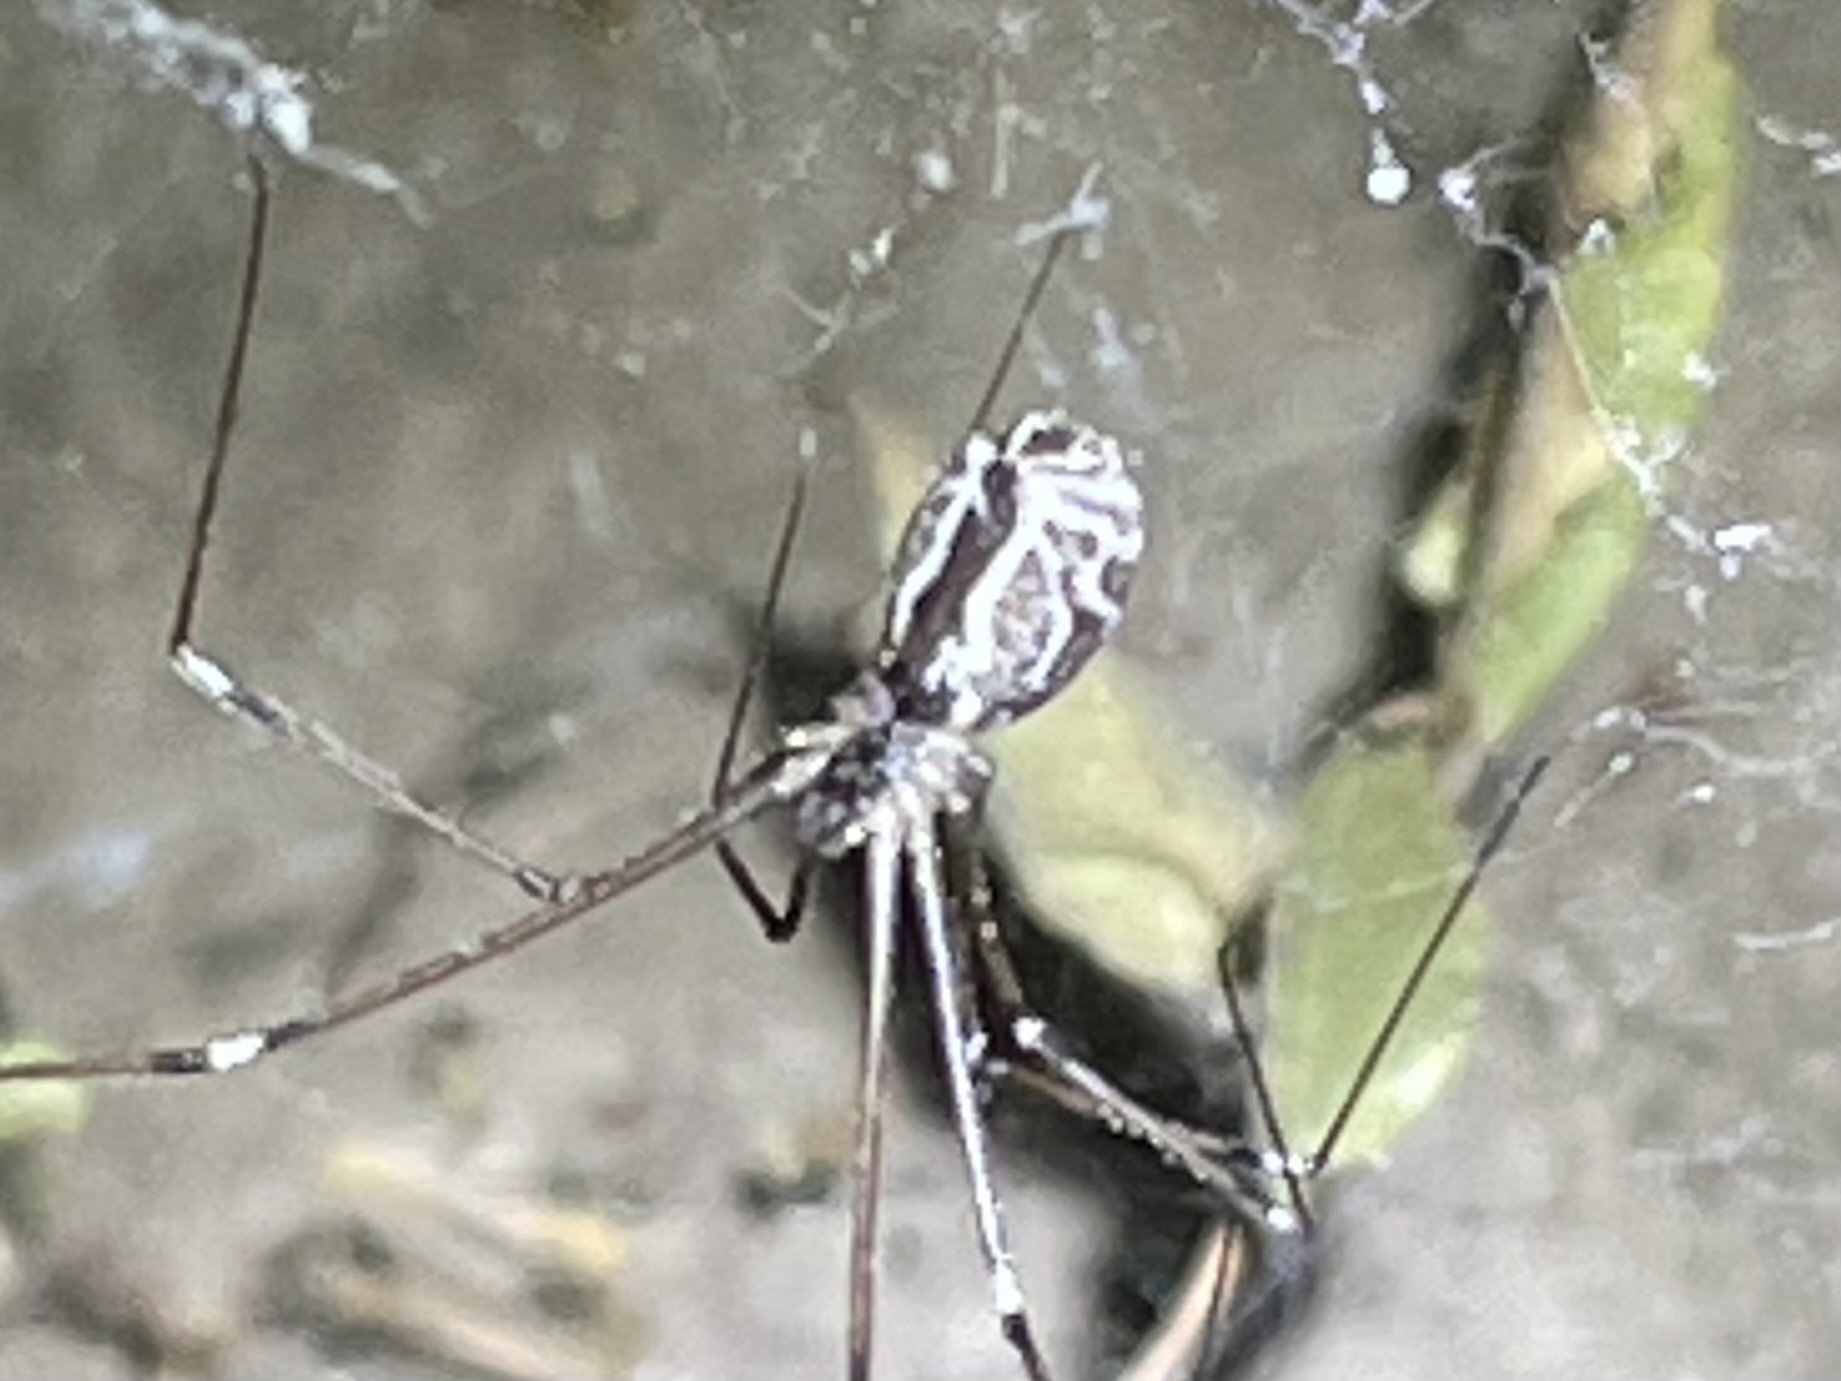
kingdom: Animalia
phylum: Arthropoda
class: Arachnida
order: Araneae
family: Pholcidae
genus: Holocnemus
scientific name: Holocnemus pluchei
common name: Marbled cellar spider
